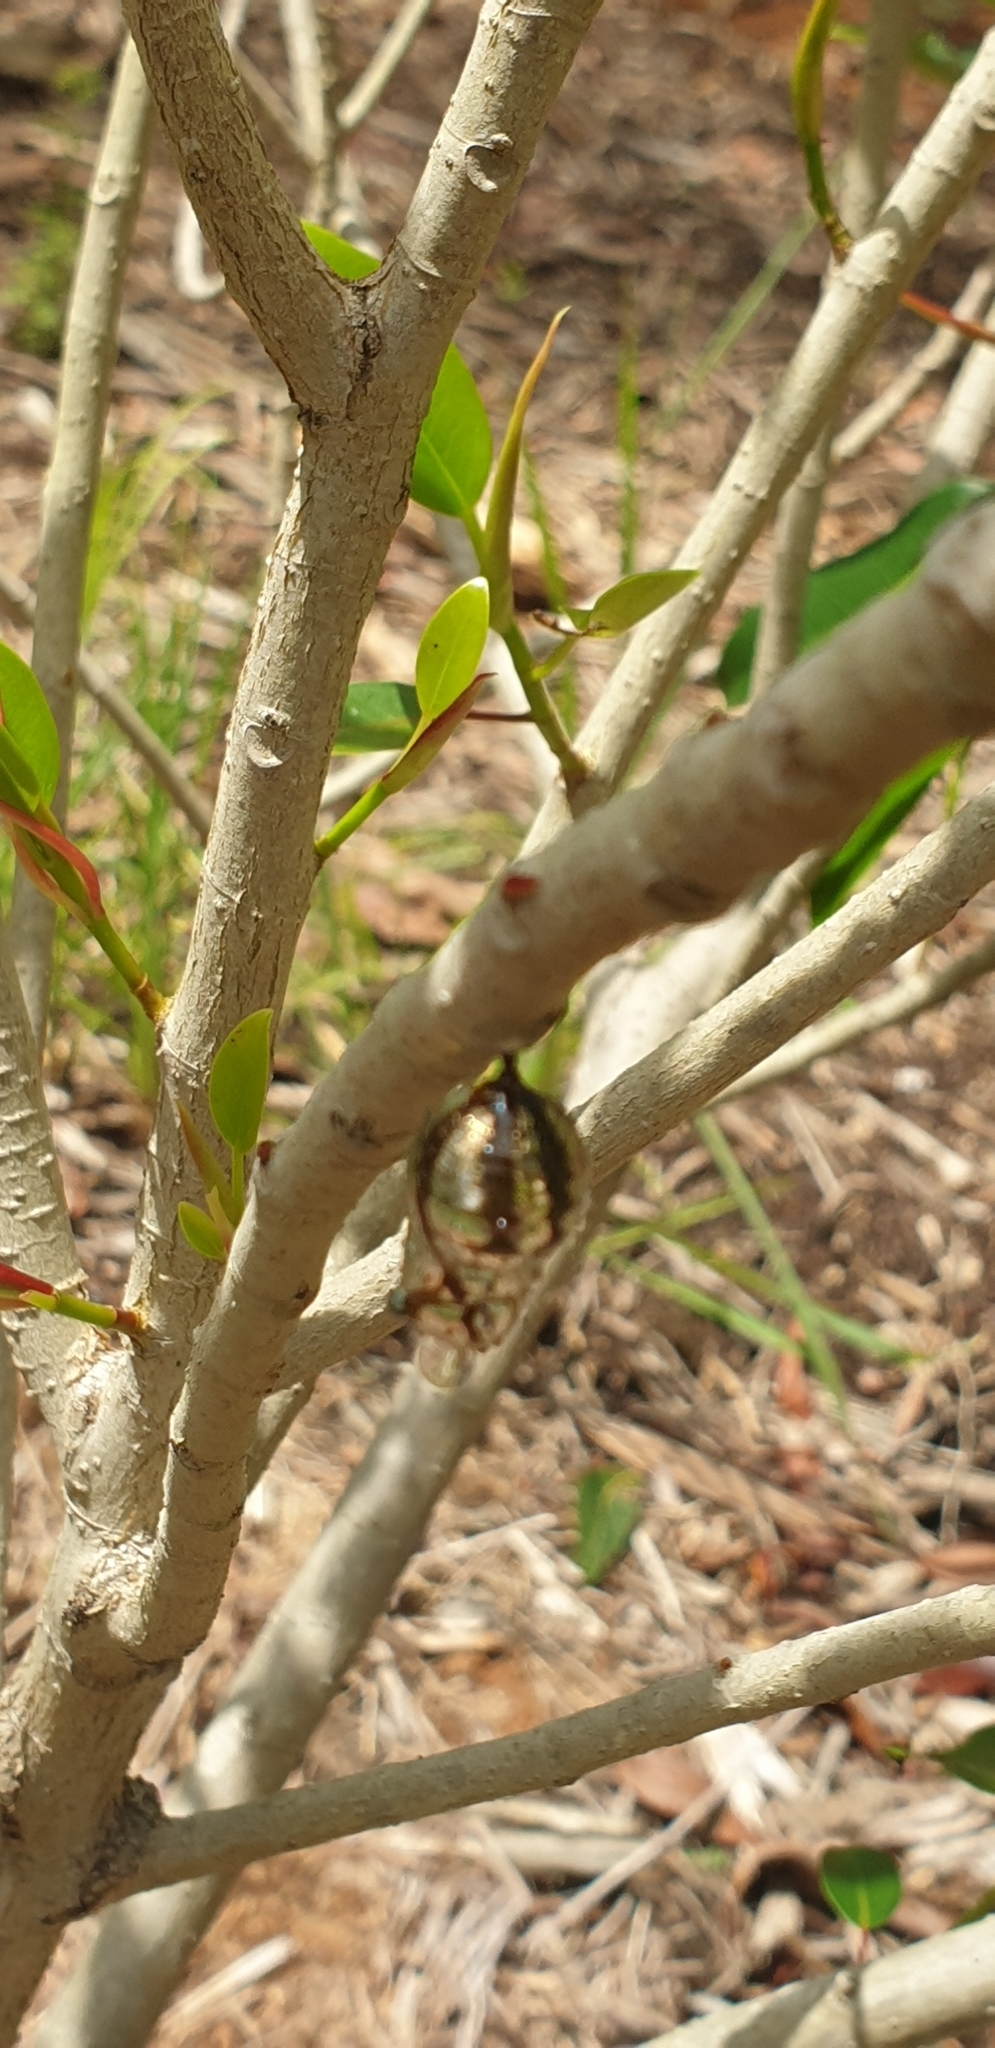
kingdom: Animalia
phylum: Arthropoda
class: Insecta
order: Lepidoptera
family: Nymphalidae
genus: Euploea
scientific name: Euploea core
